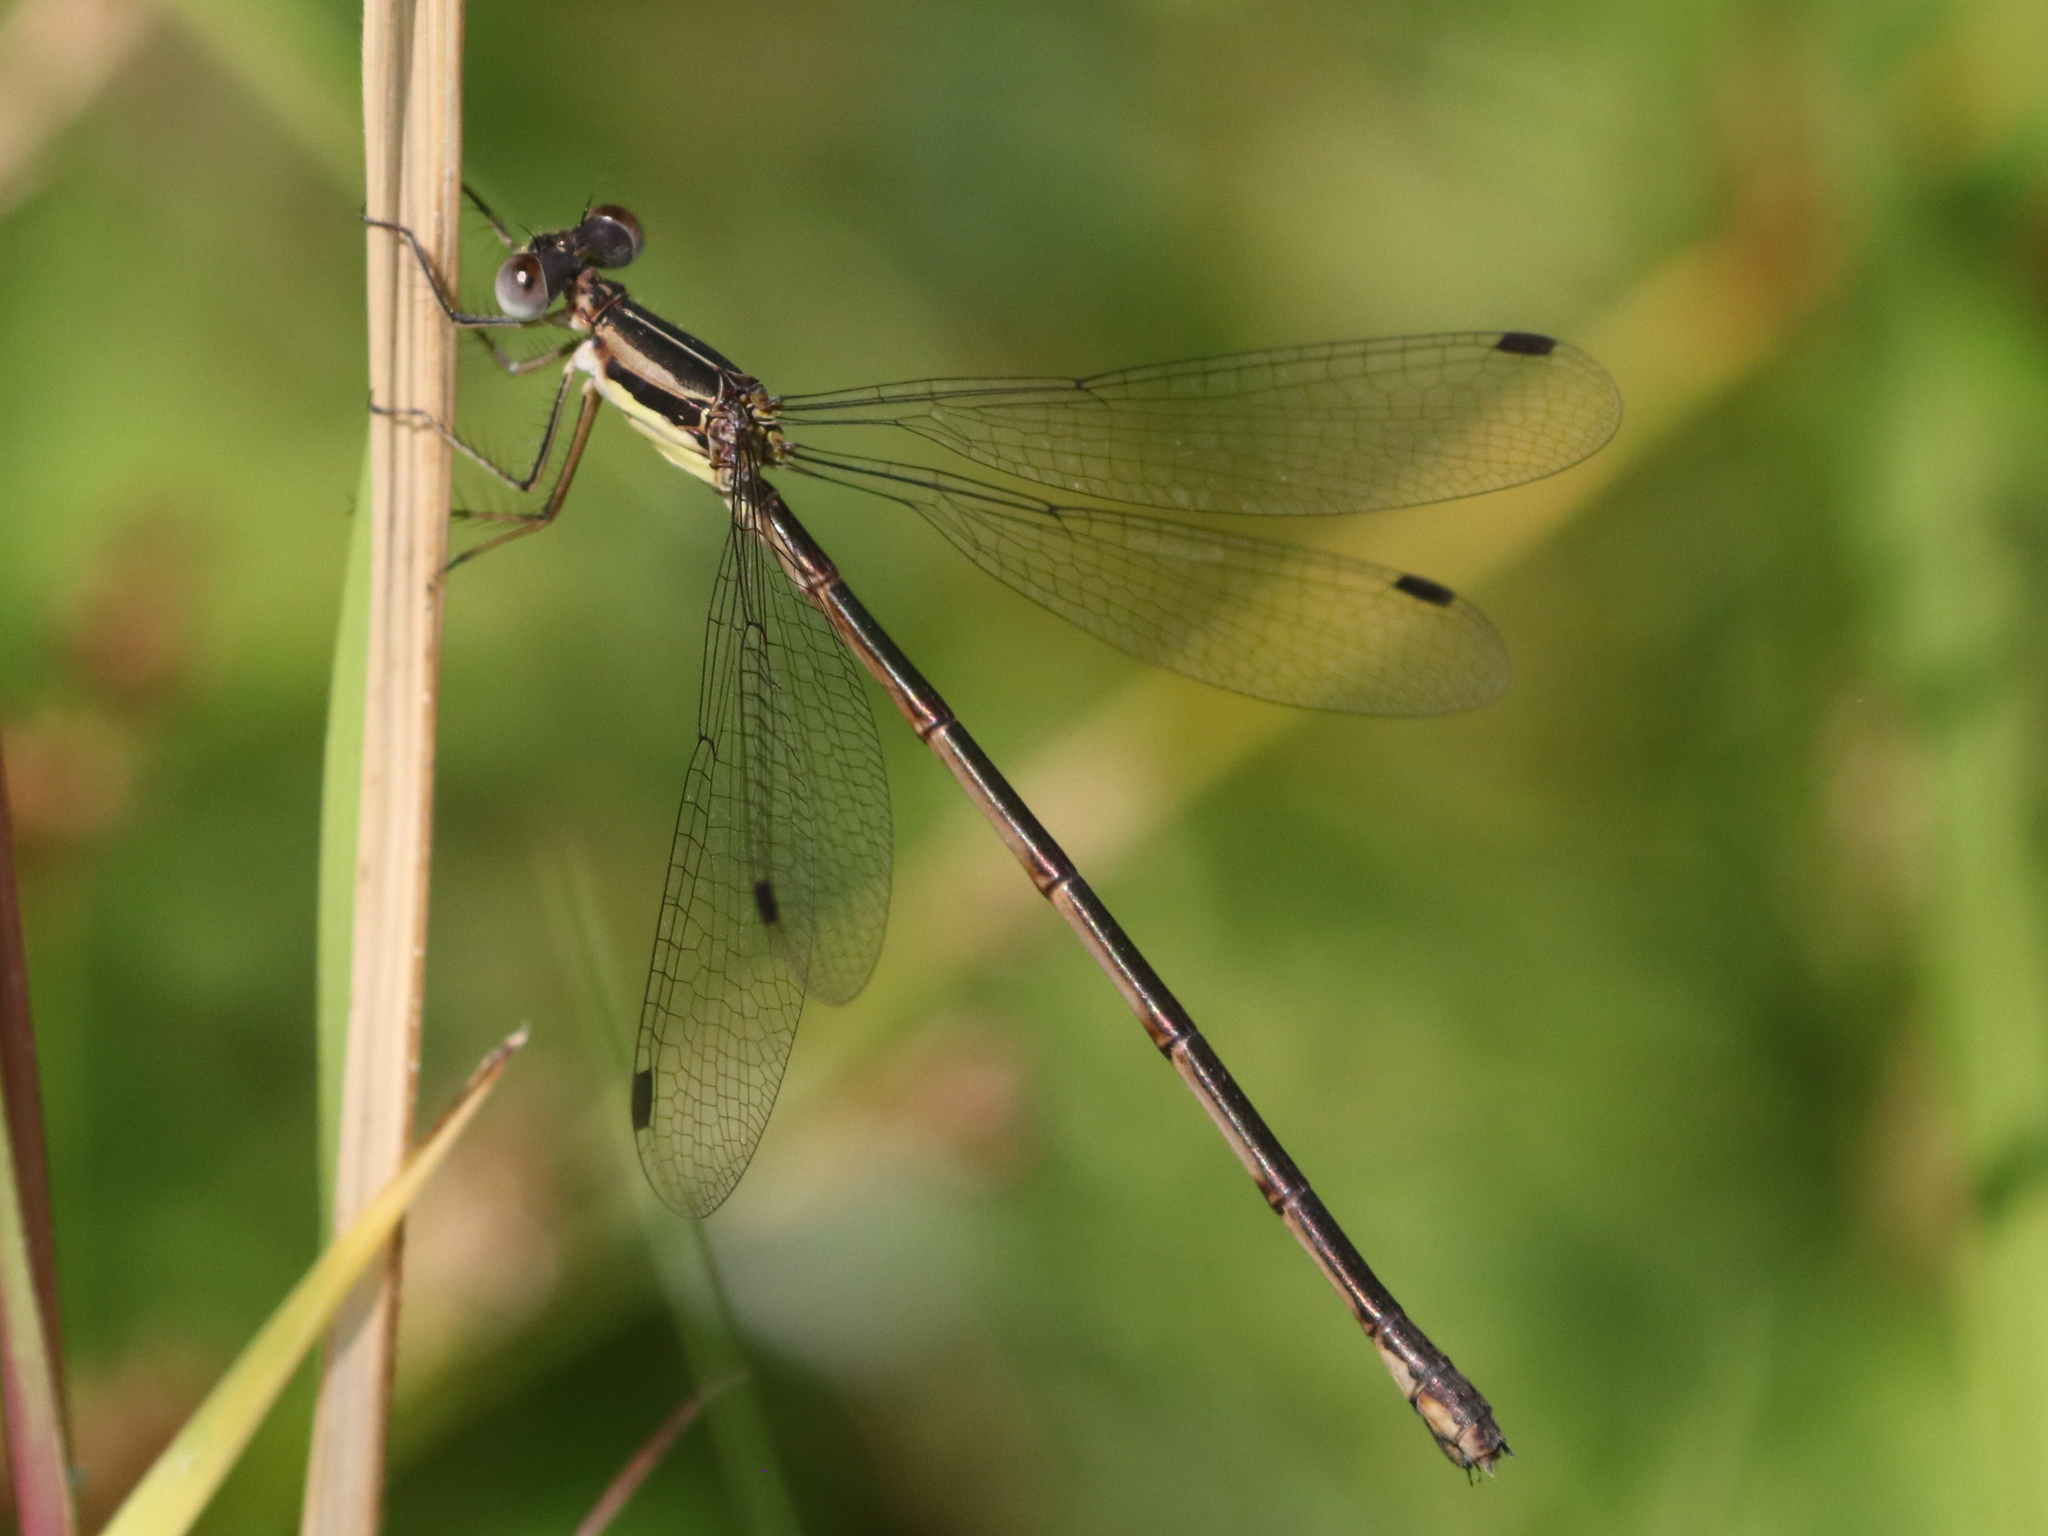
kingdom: Animalia
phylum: Arthropoda
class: Insecta
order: Odonata
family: Lestidae
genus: Lestes
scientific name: Lestes rectangularis
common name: Slender spreadwing
